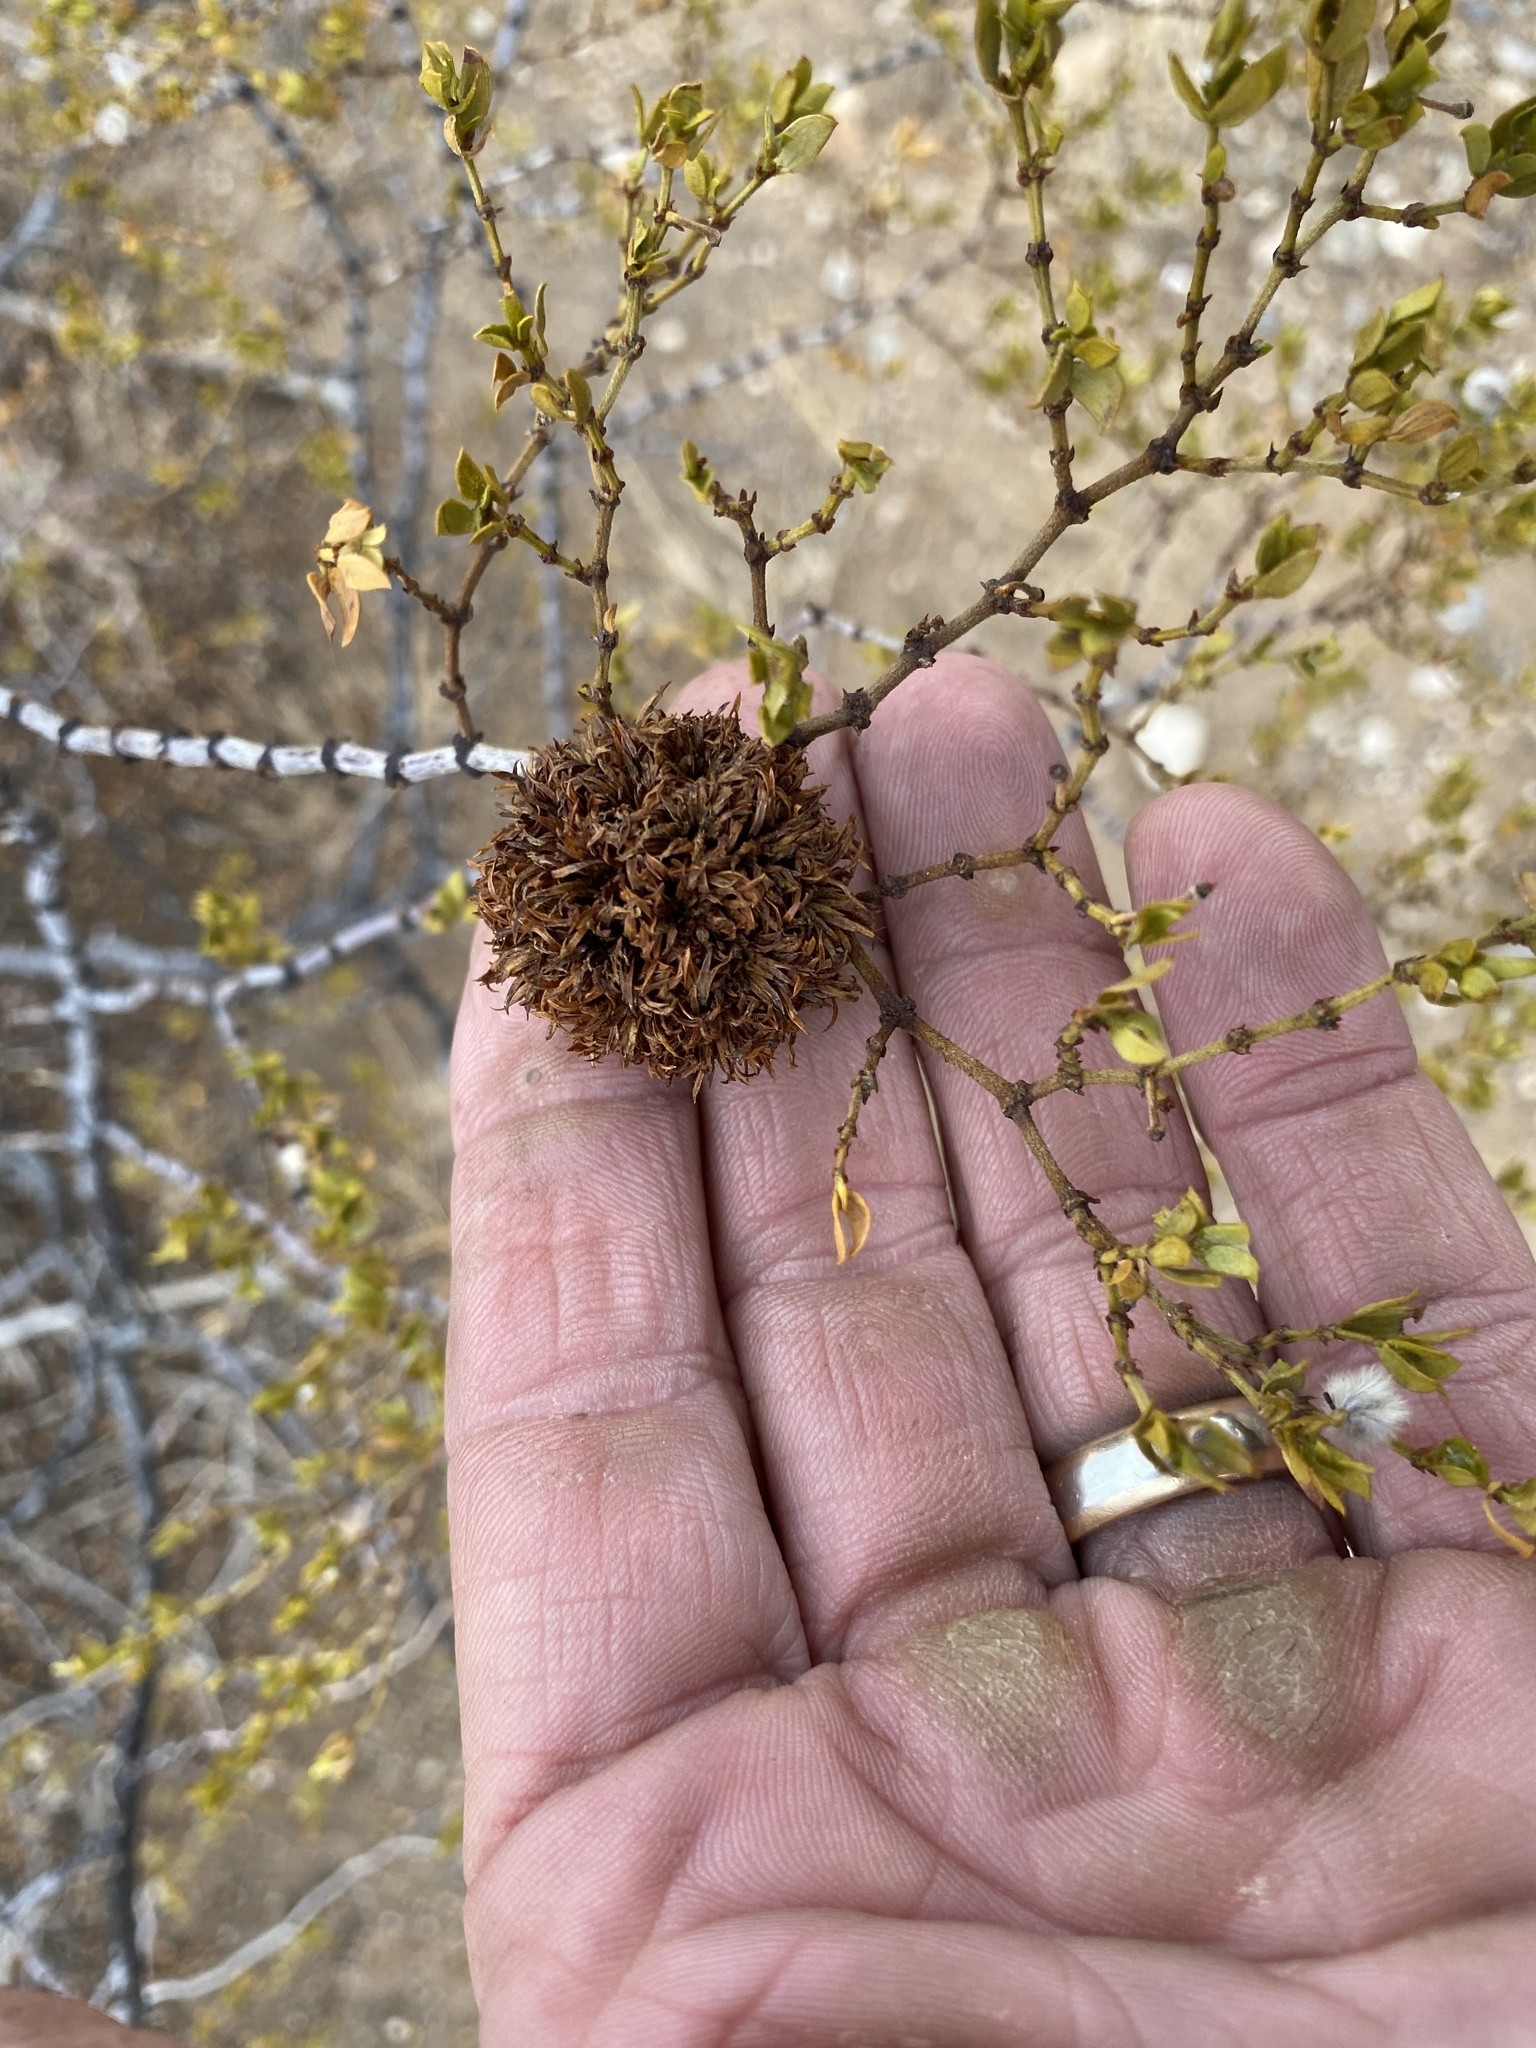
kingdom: Animalia
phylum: Arthropoda
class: Insecta
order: Diptera
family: Cecidomyiidae
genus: Asphondylia
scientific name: Asphondylia auripila
